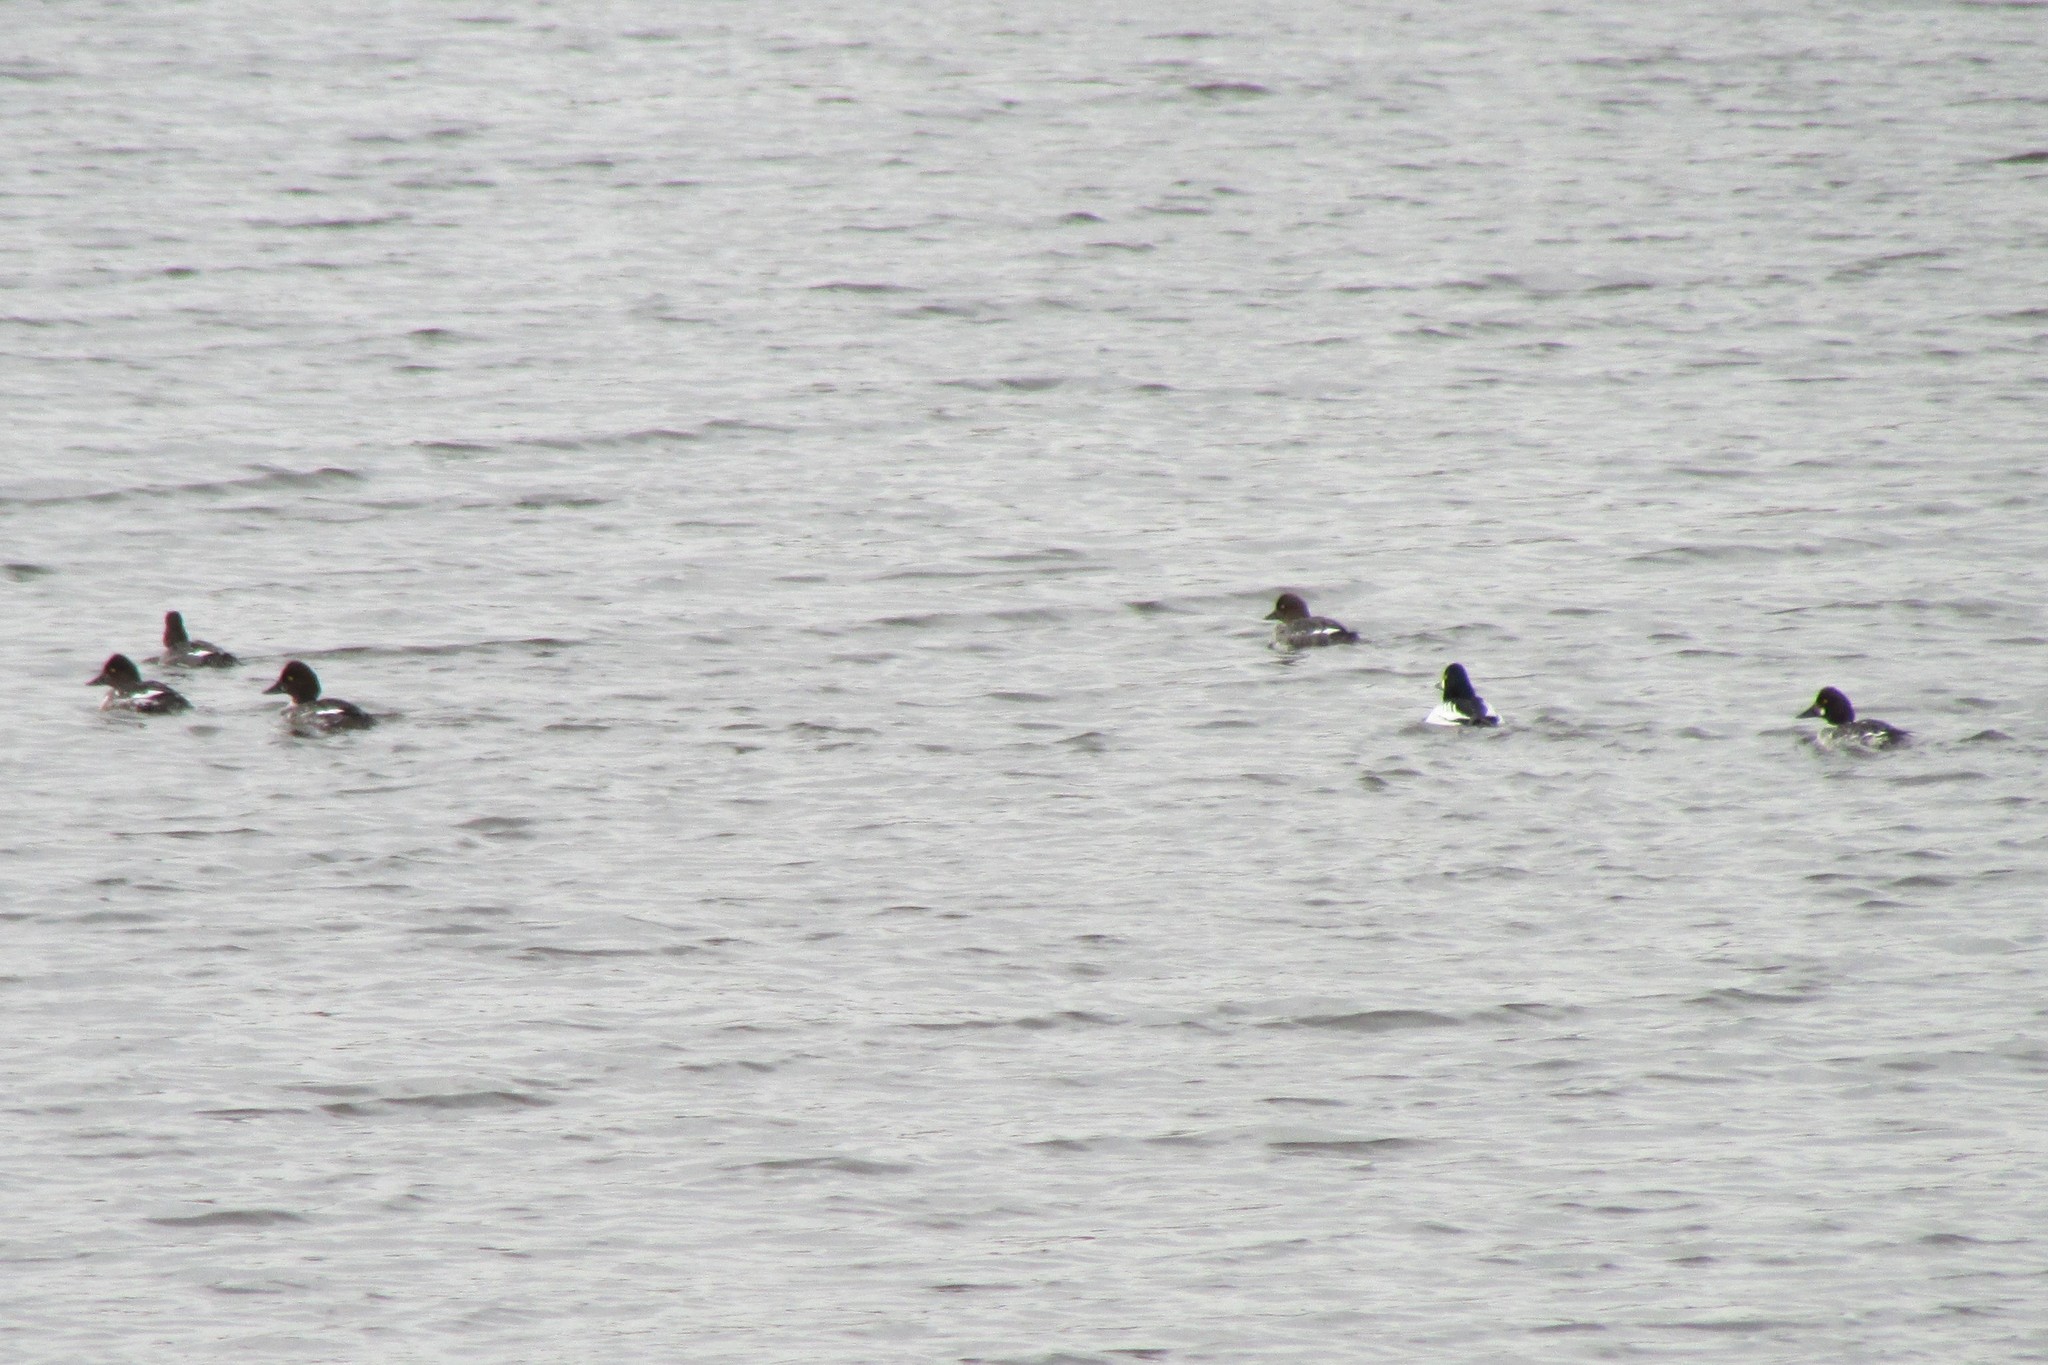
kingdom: Animalia
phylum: Chordata
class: Aves
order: Anseriformes
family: Anatidae
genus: Bucephala
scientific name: Bucephala clangula
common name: Common goldeneye
